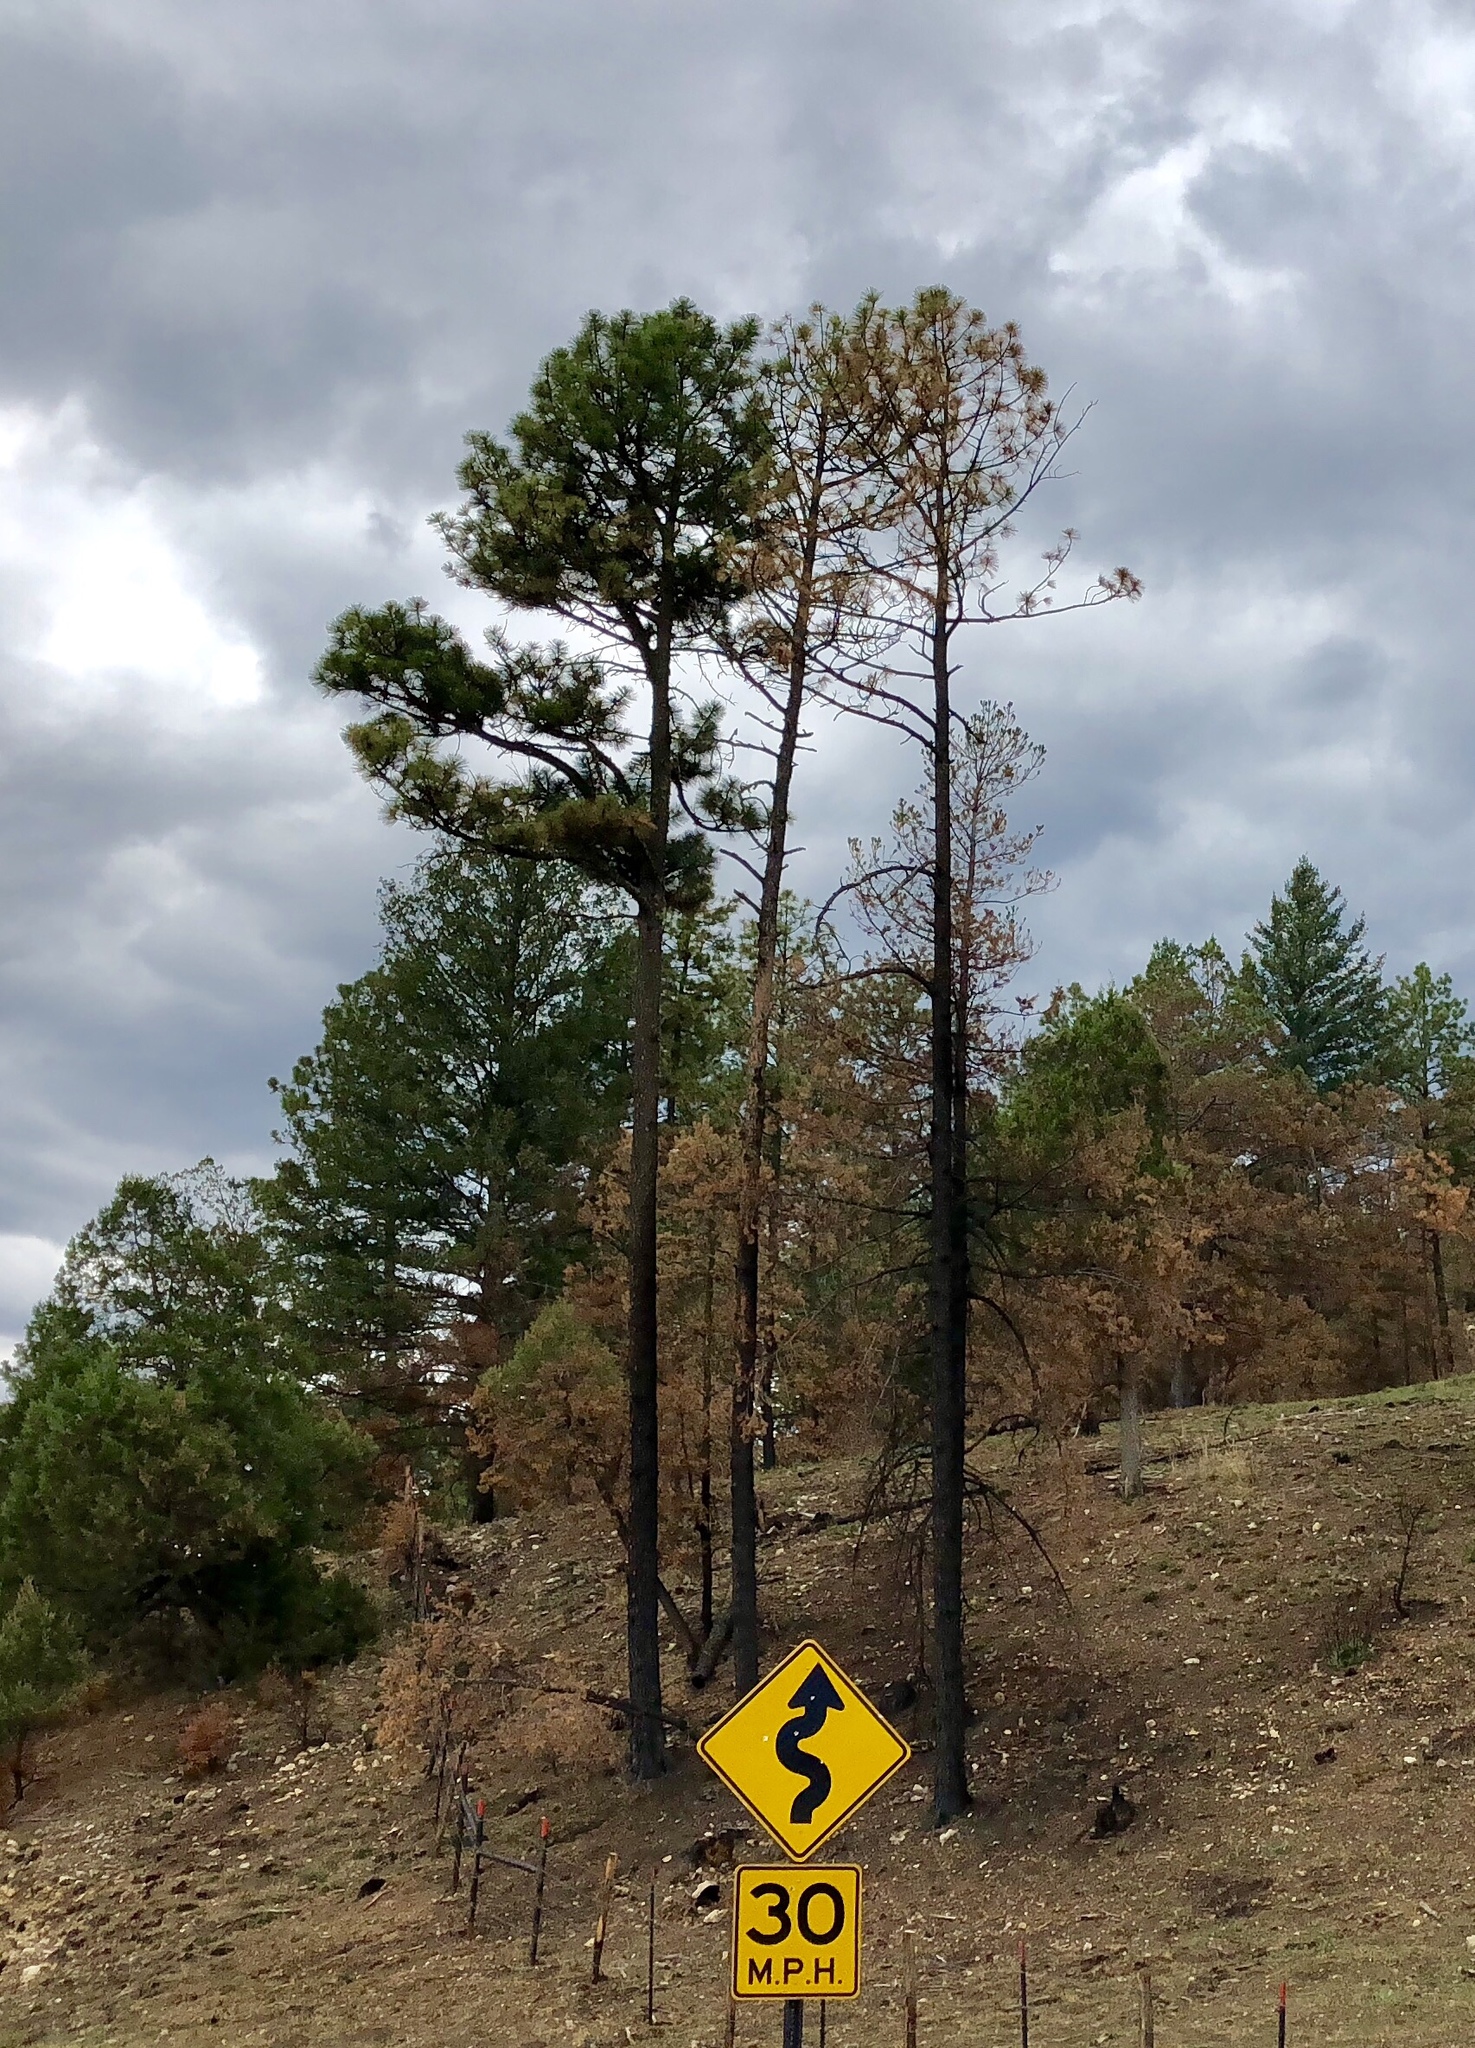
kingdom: Plantae
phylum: Tracheophyta
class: Pinopsida
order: Pinales
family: Pinaceae
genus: Pinus
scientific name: Pinus ponderosa
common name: Western yellow-pine
